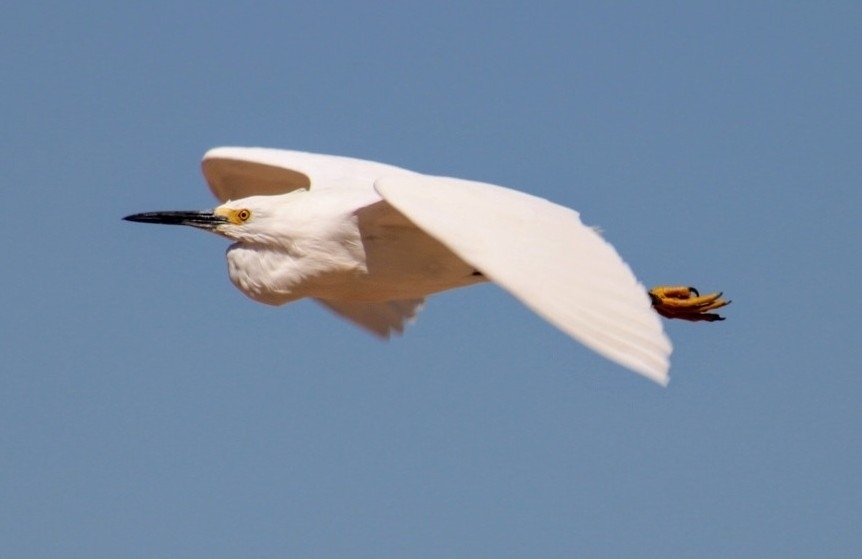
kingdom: Animalia
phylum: Chordata
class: Aves
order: Pelecaniformes
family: Ardeidae
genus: Egretta
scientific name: Egretta thula
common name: Snowy egret
